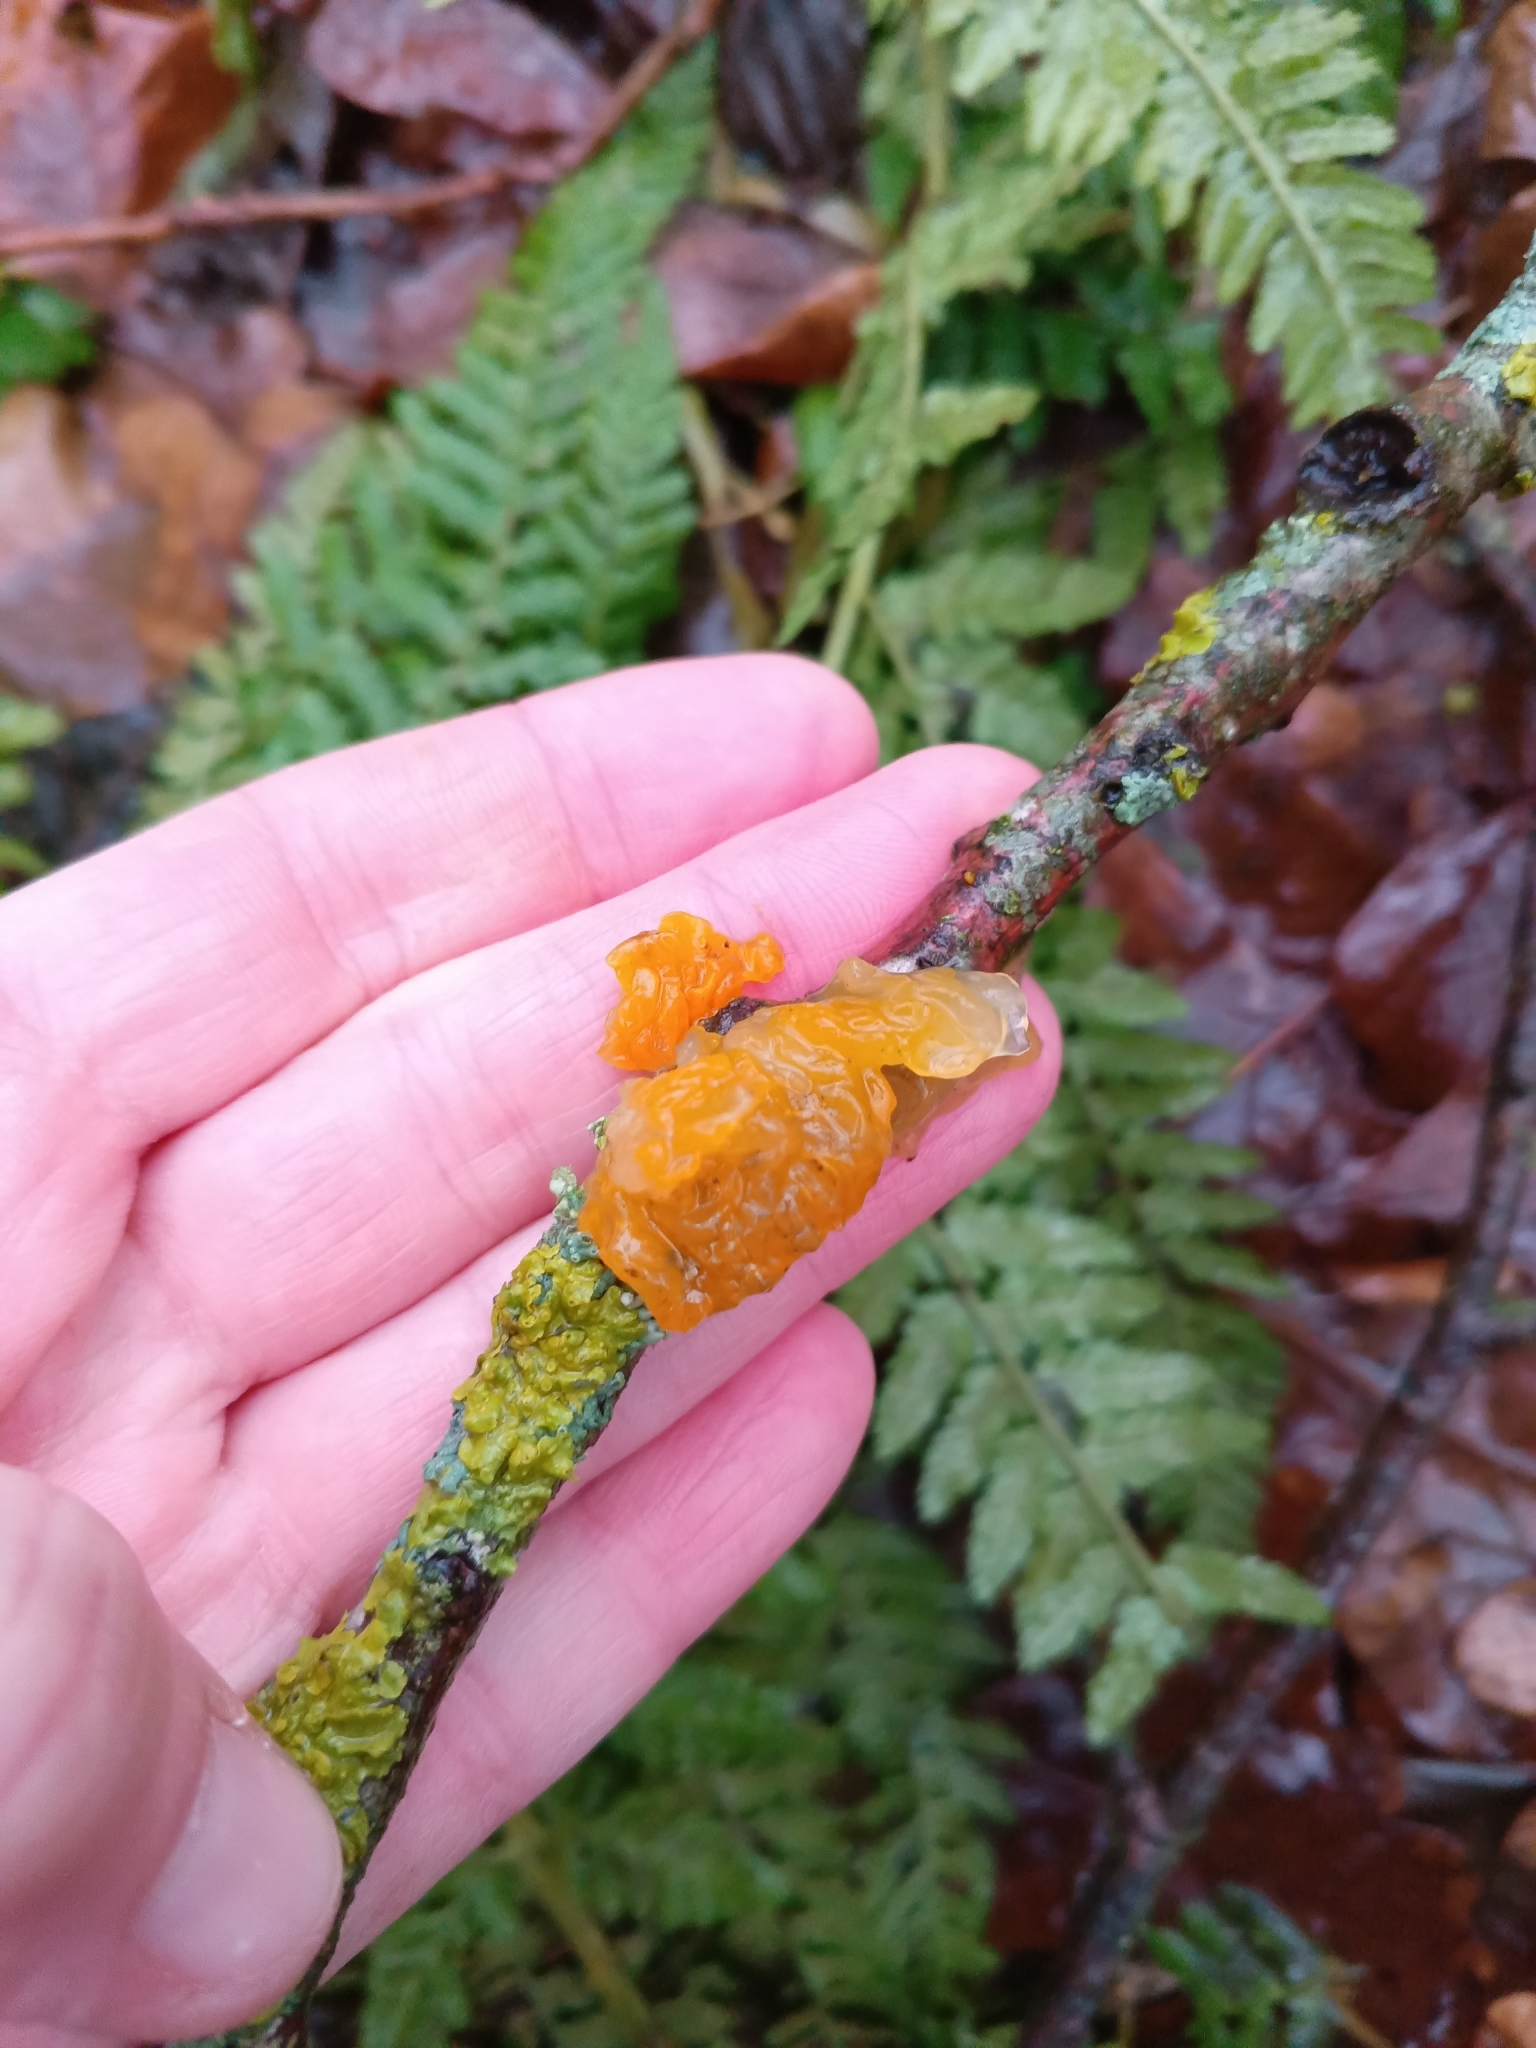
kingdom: Fungi
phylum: Basidiomycota
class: Tremellomycetes
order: Tremellales
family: Tremellaceae
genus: Tremella
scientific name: Tremella mesenterica
